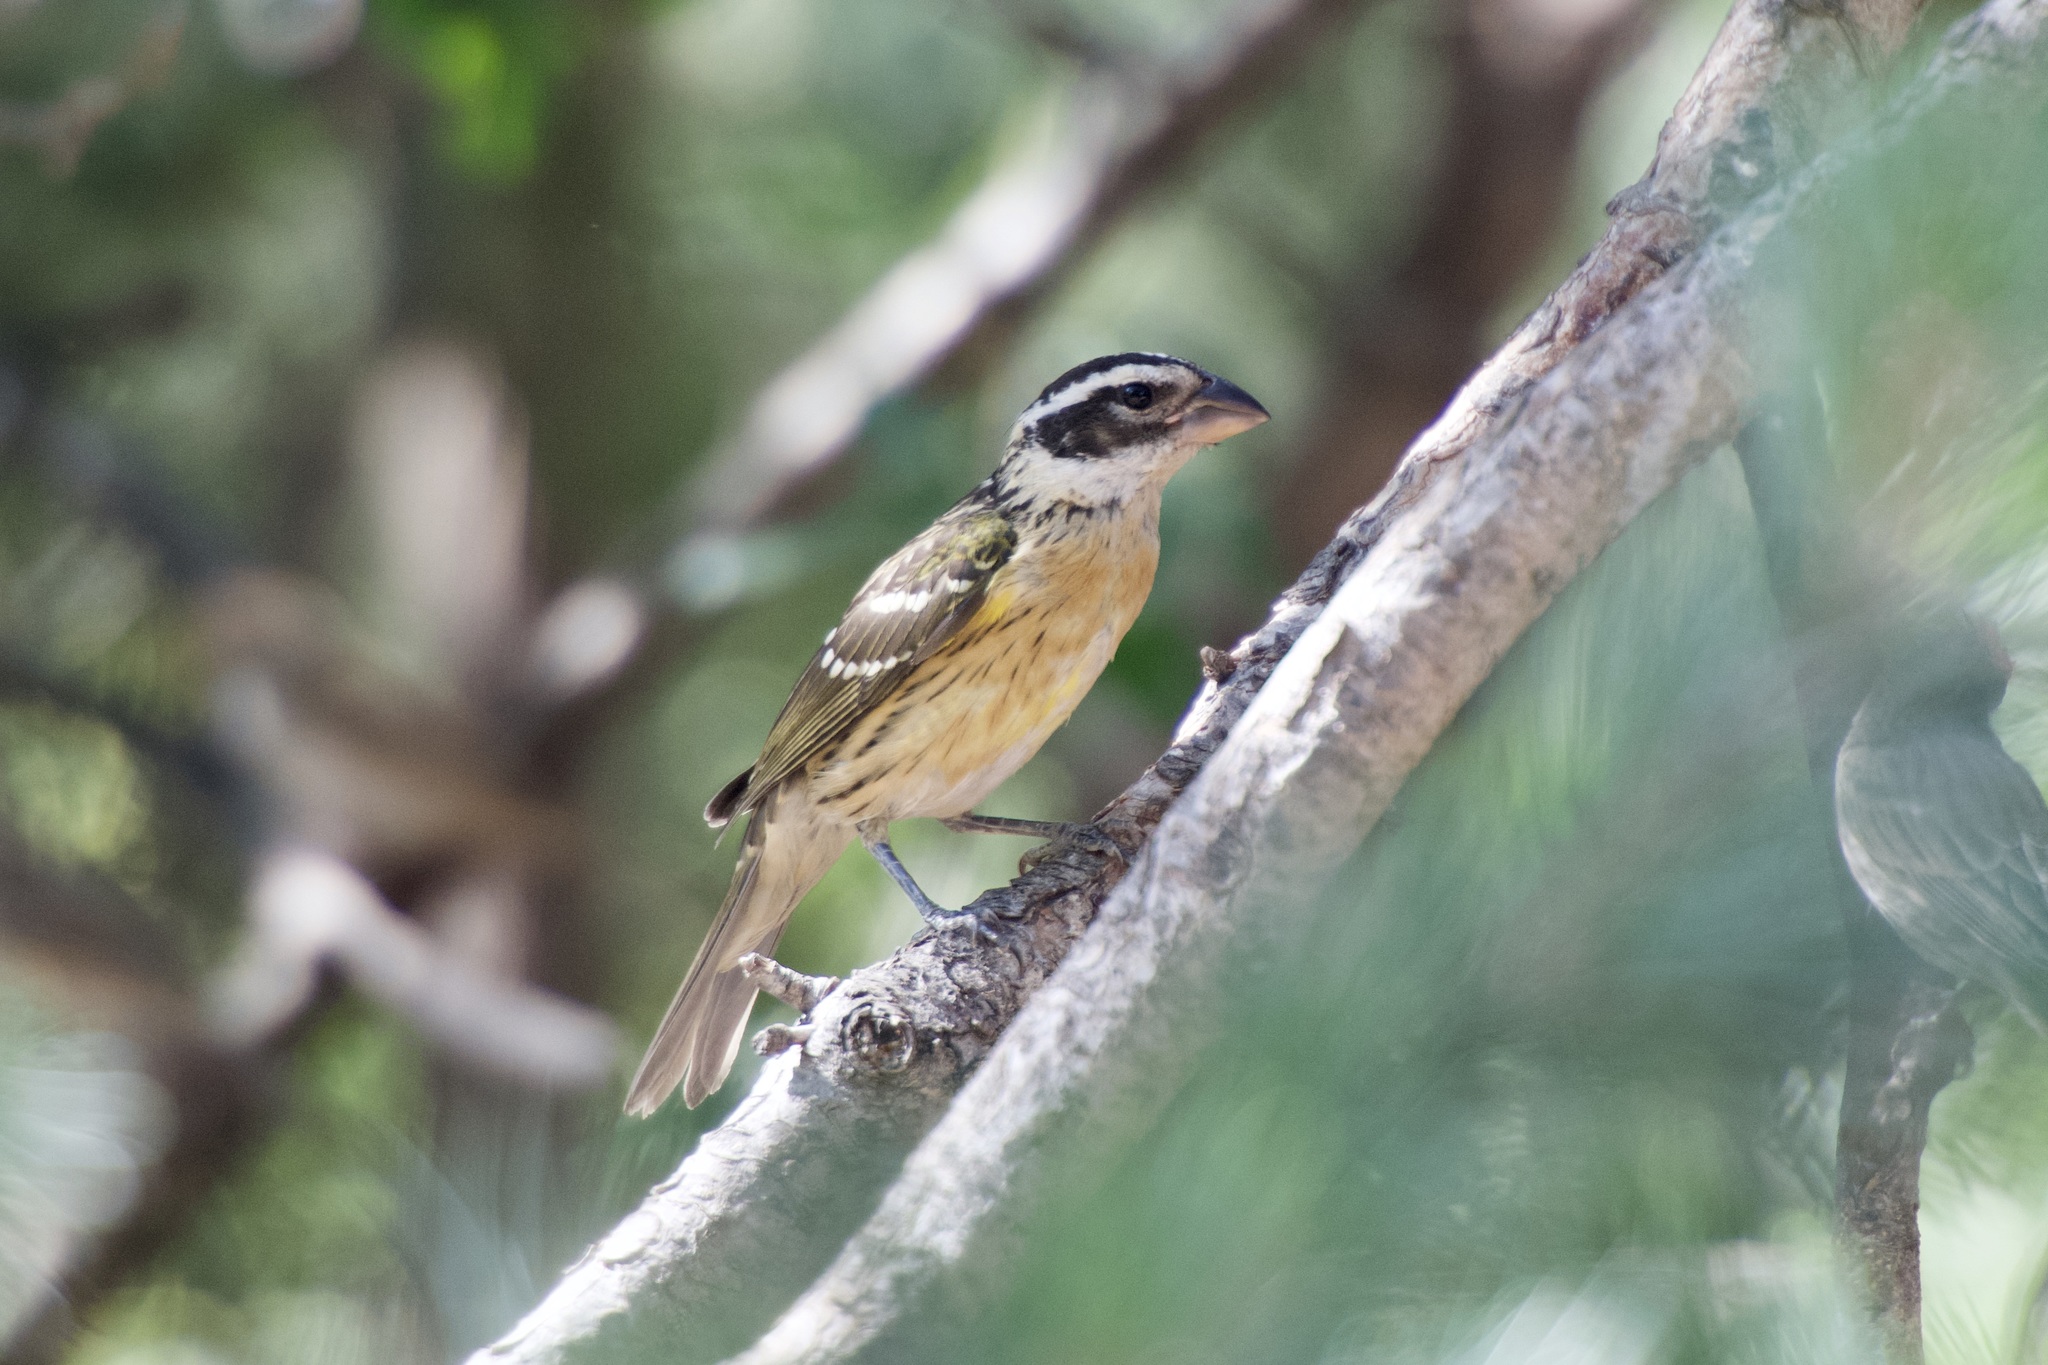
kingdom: Animalia
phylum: Chordata
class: Aves
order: Passeriformes
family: Cardinalidae
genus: Pheucticus
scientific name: Pheucticus melanocephalus
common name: Black-headed grosbeak
